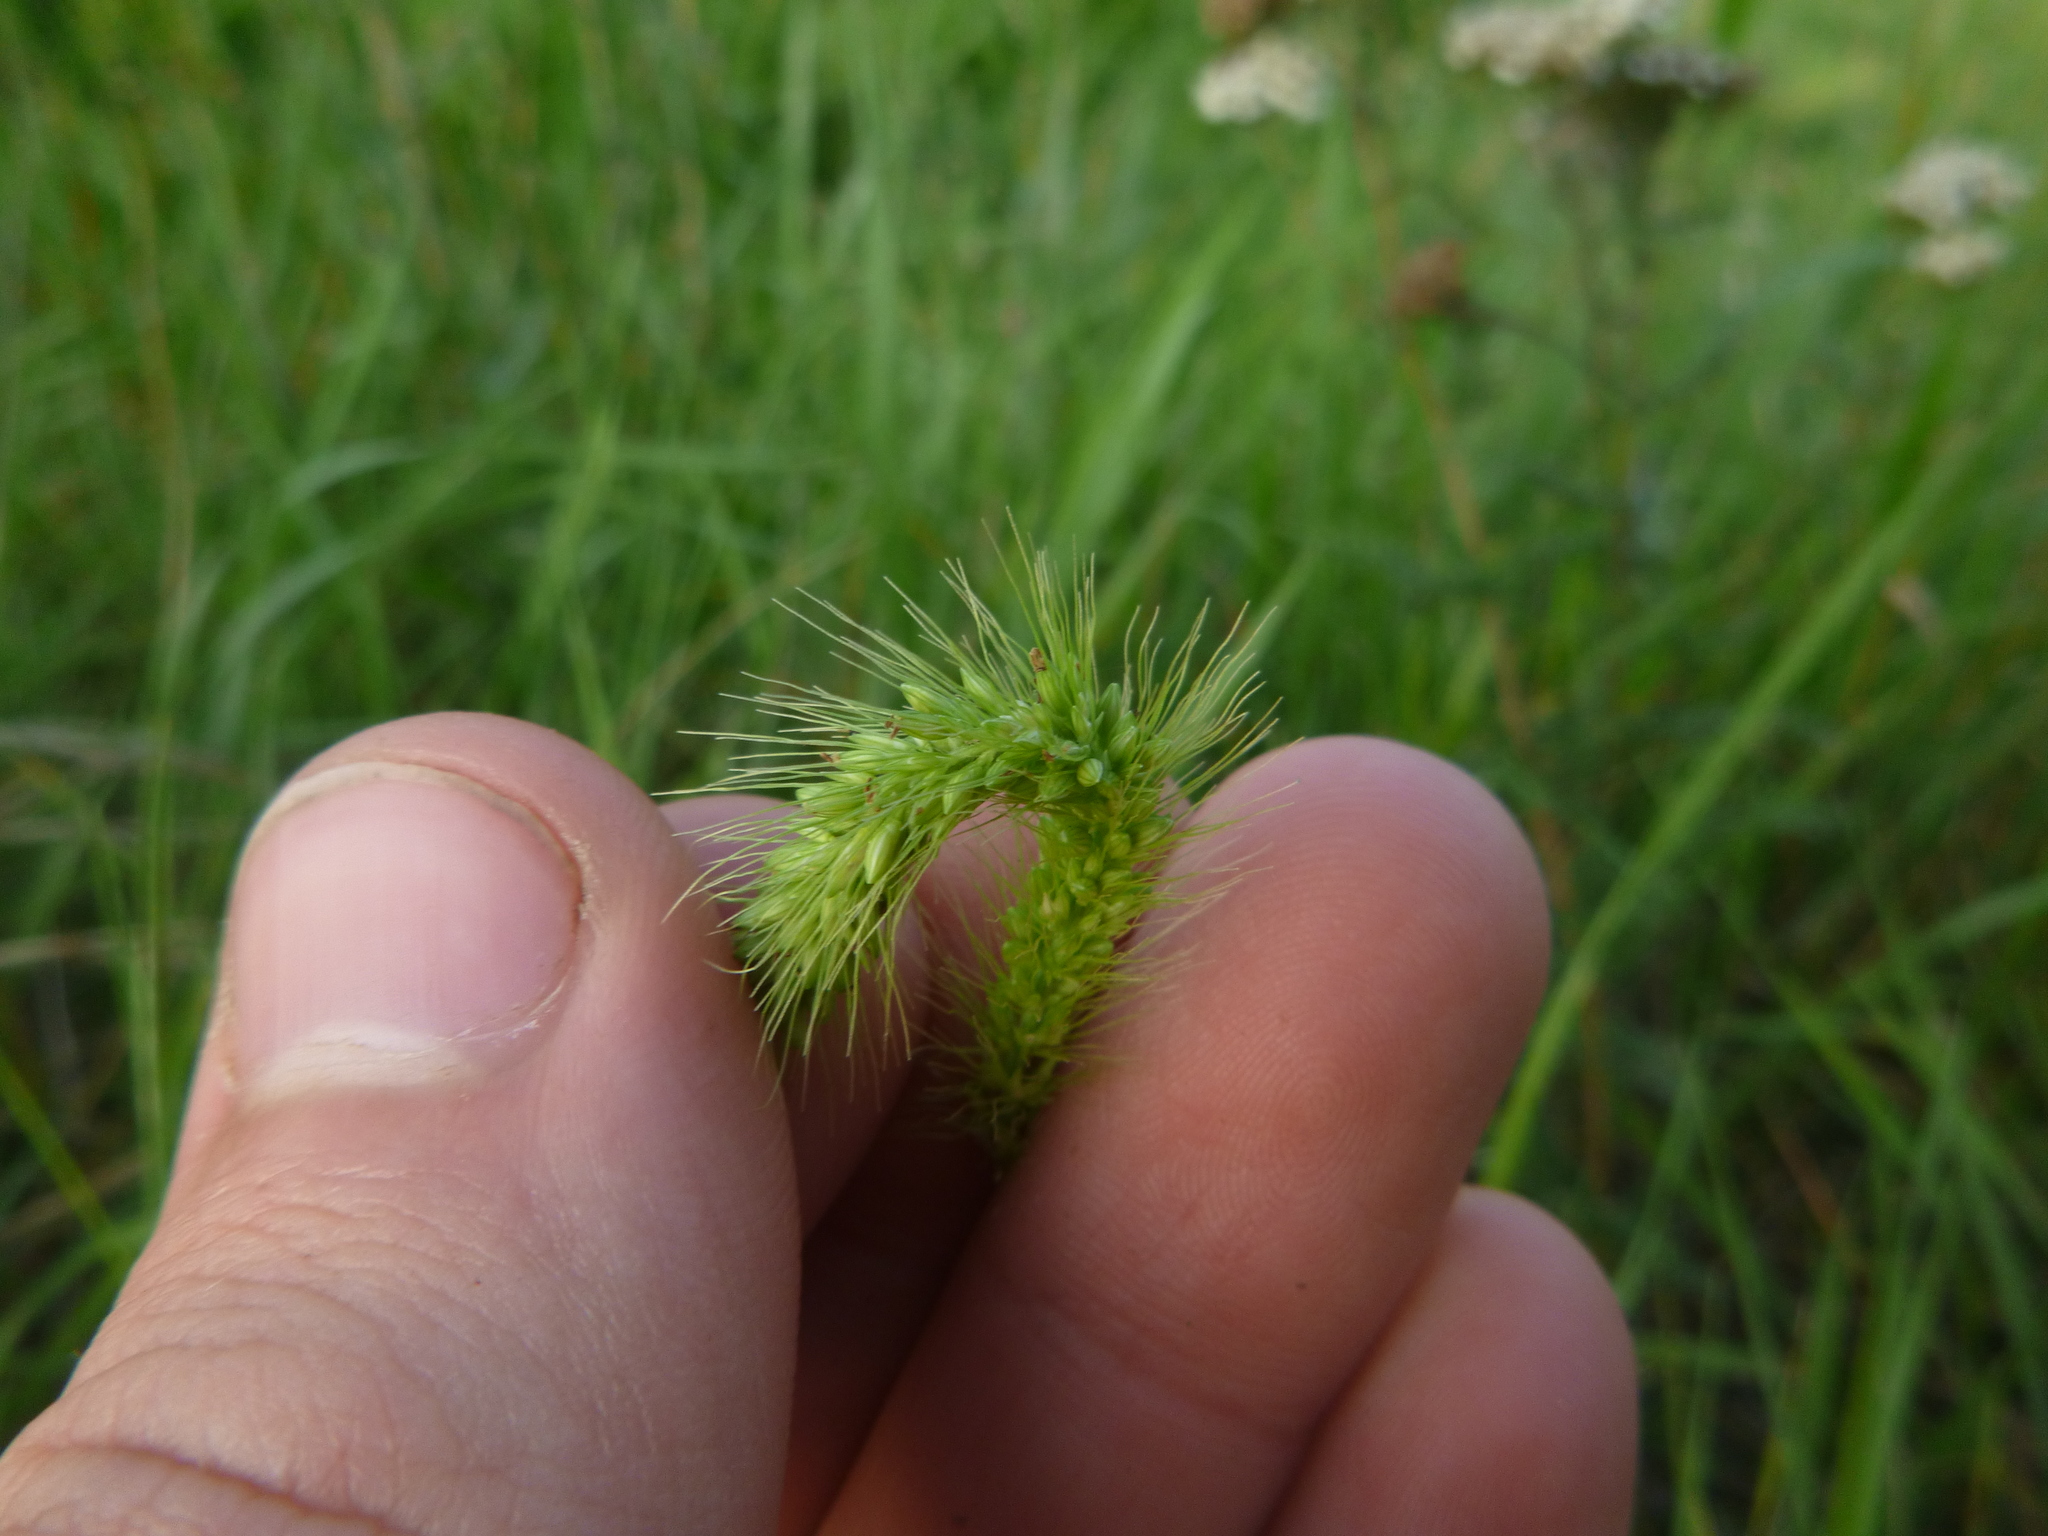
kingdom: Plantae
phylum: Tracheophyta
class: Liliopsida
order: Poales
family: Poaceae
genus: Setaria
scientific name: Setaria viridis
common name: Green bristlegrass
